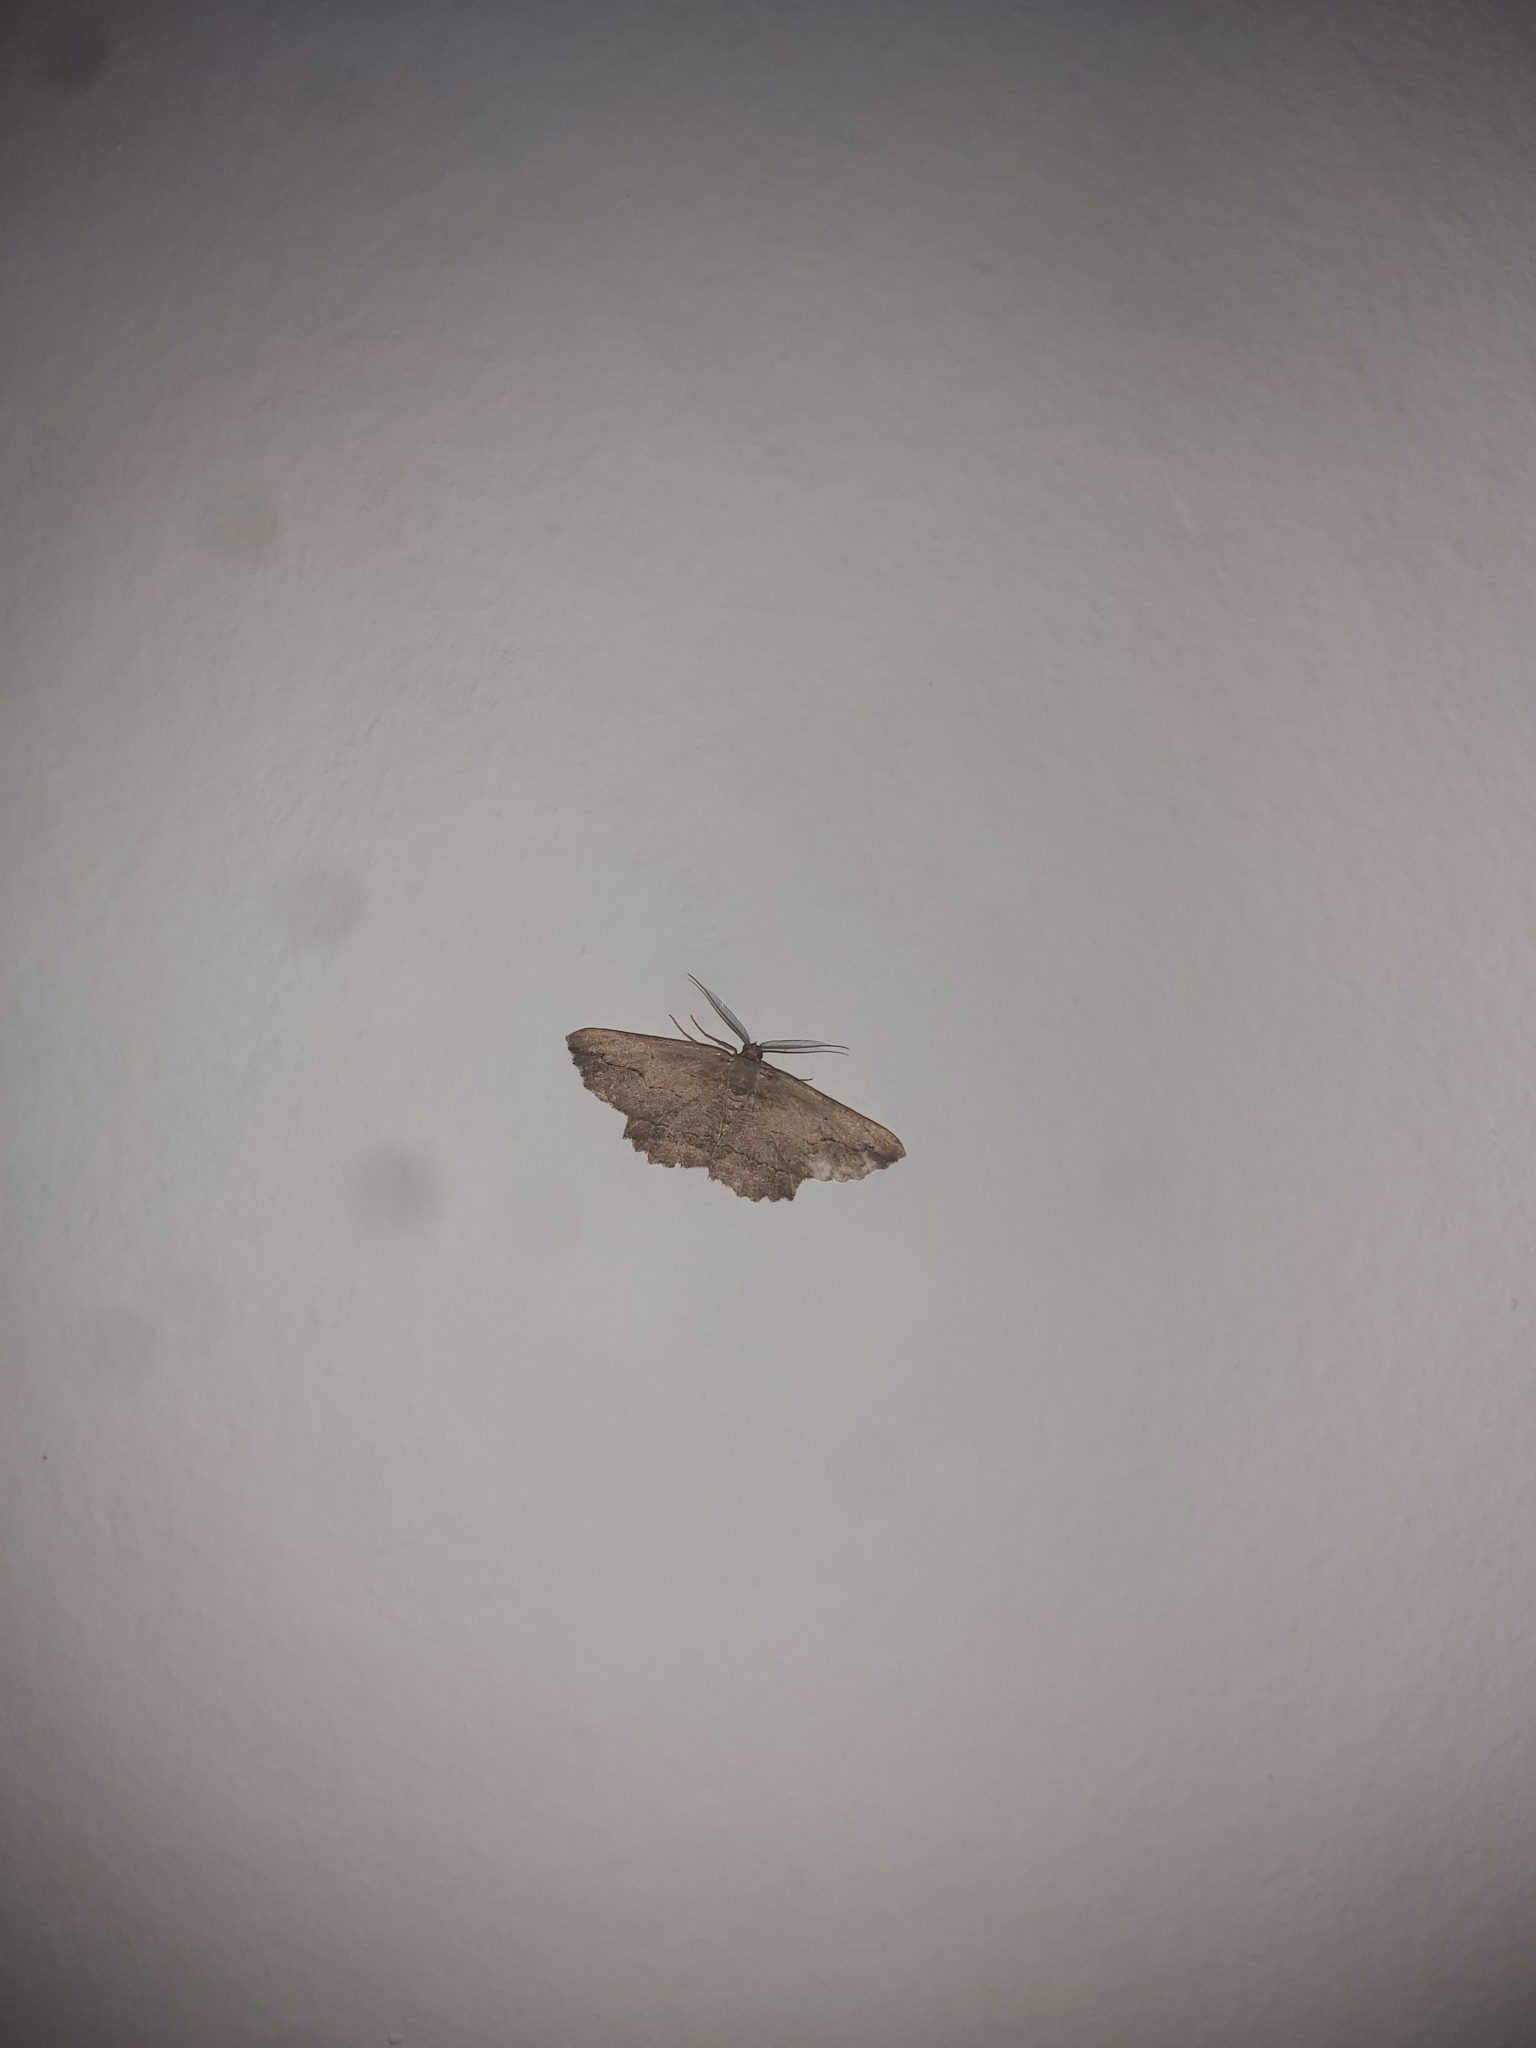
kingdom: Animalia
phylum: Arthropoda
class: Insecta
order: Lepidoptera
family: Geometridae
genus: Menophra
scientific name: Menophra abruptaria
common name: Waved umber
